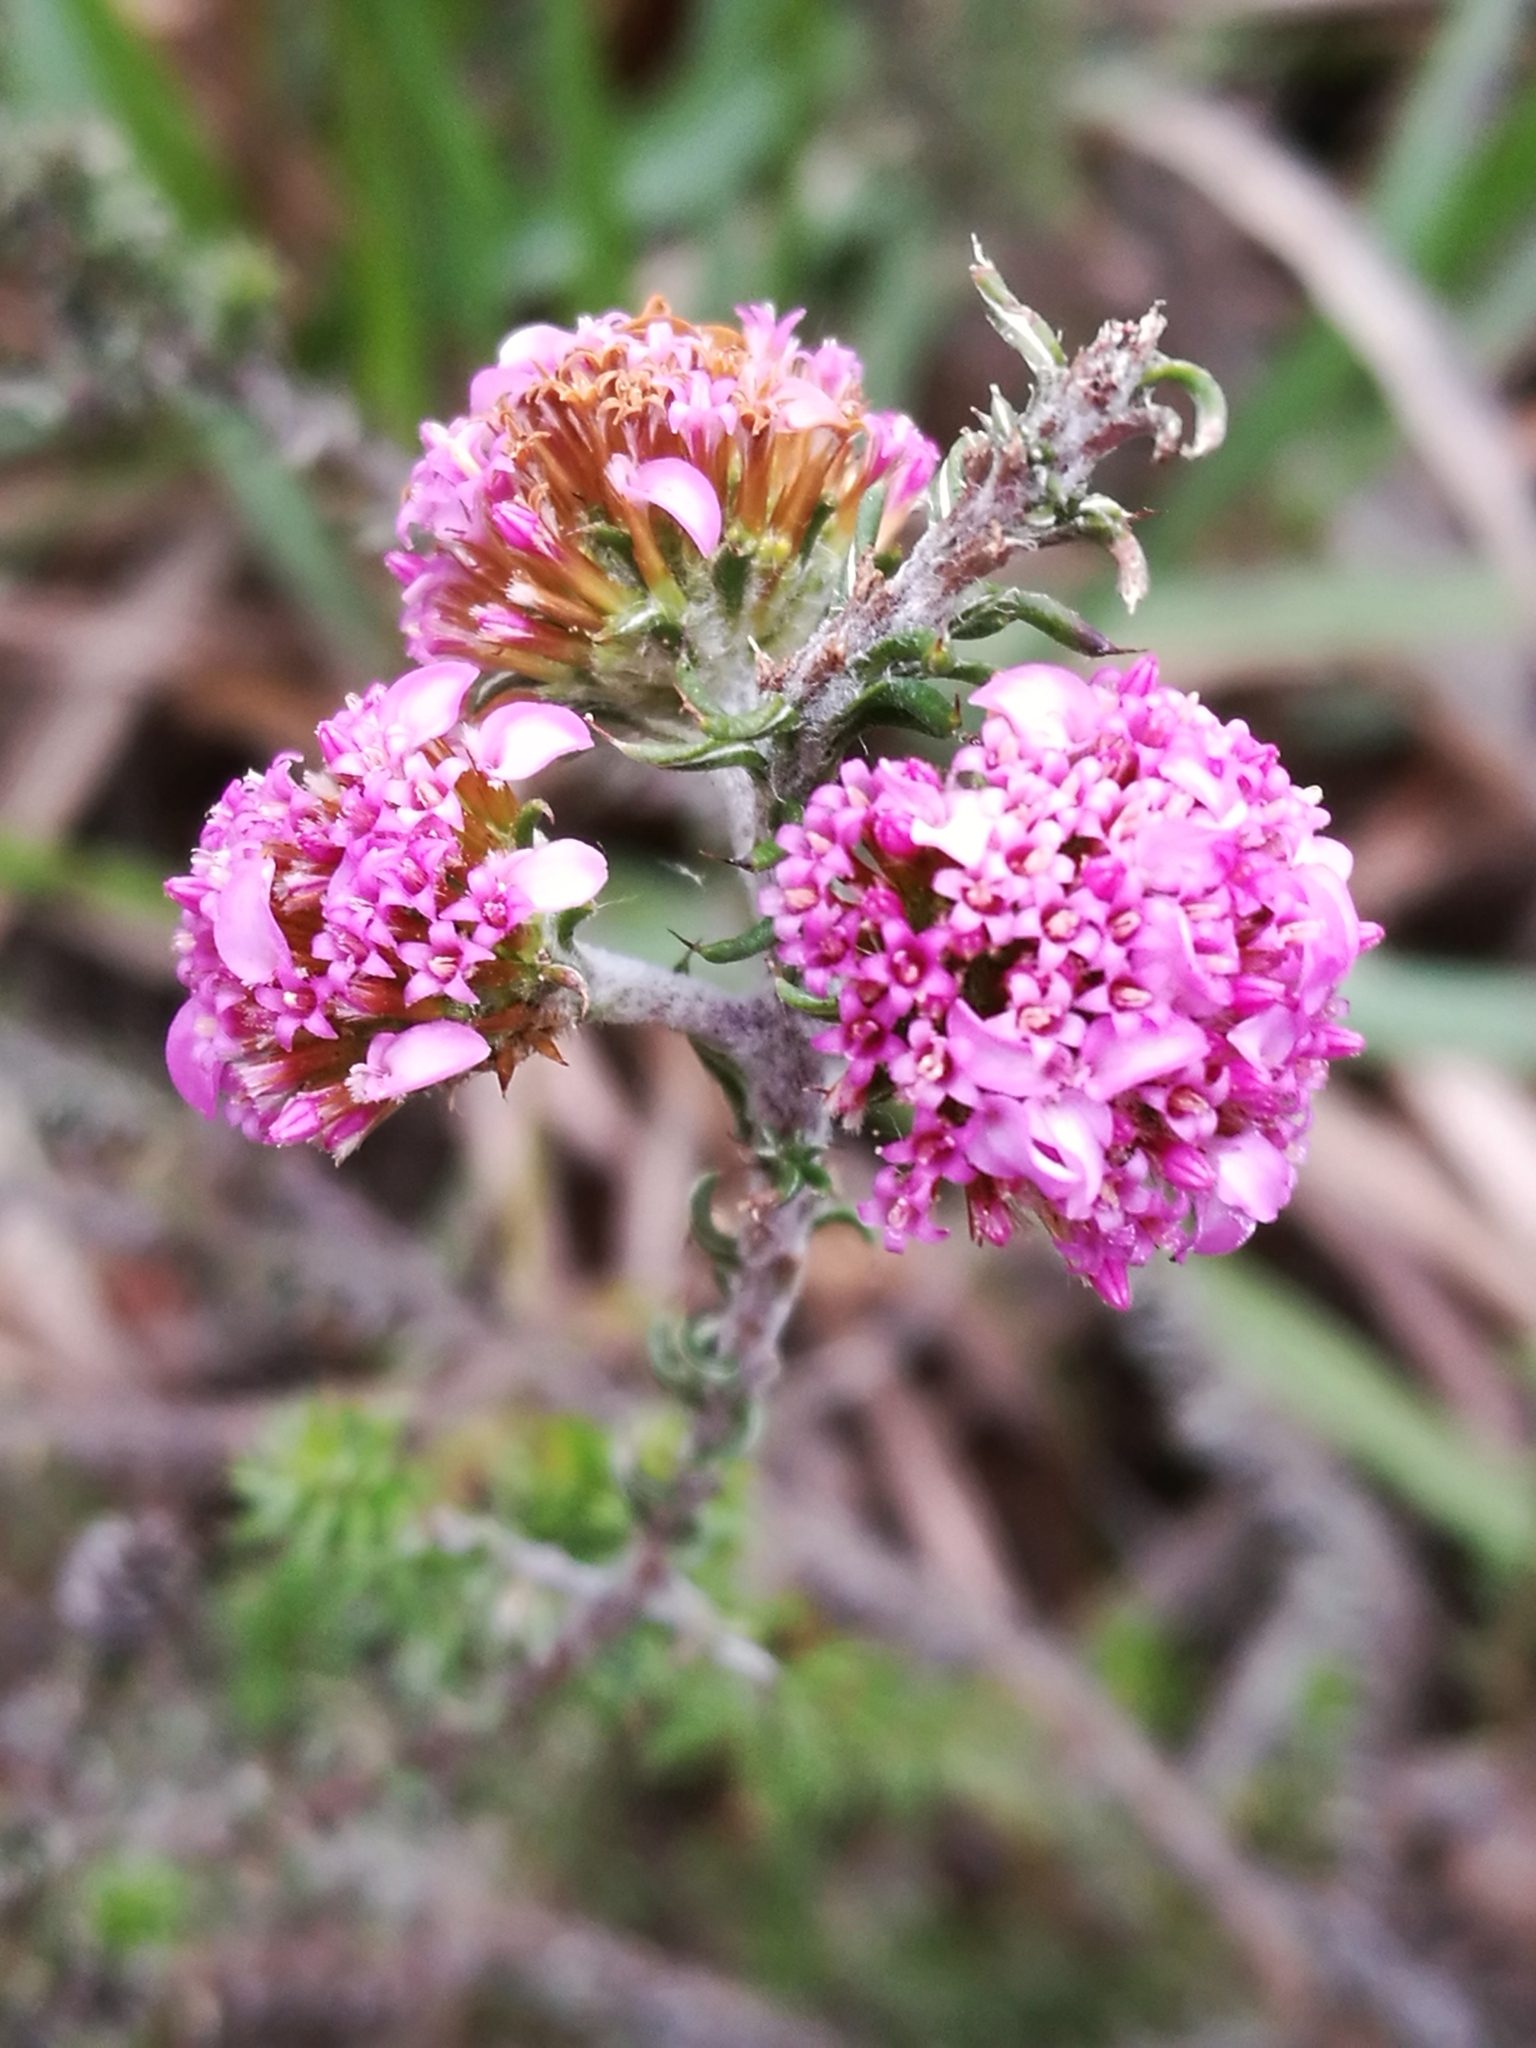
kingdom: Plantae
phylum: Tracheophyta
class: Magnoliopsida
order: Asterales
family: Asteraceae
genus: Disparago
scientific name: Disparago tortilis
